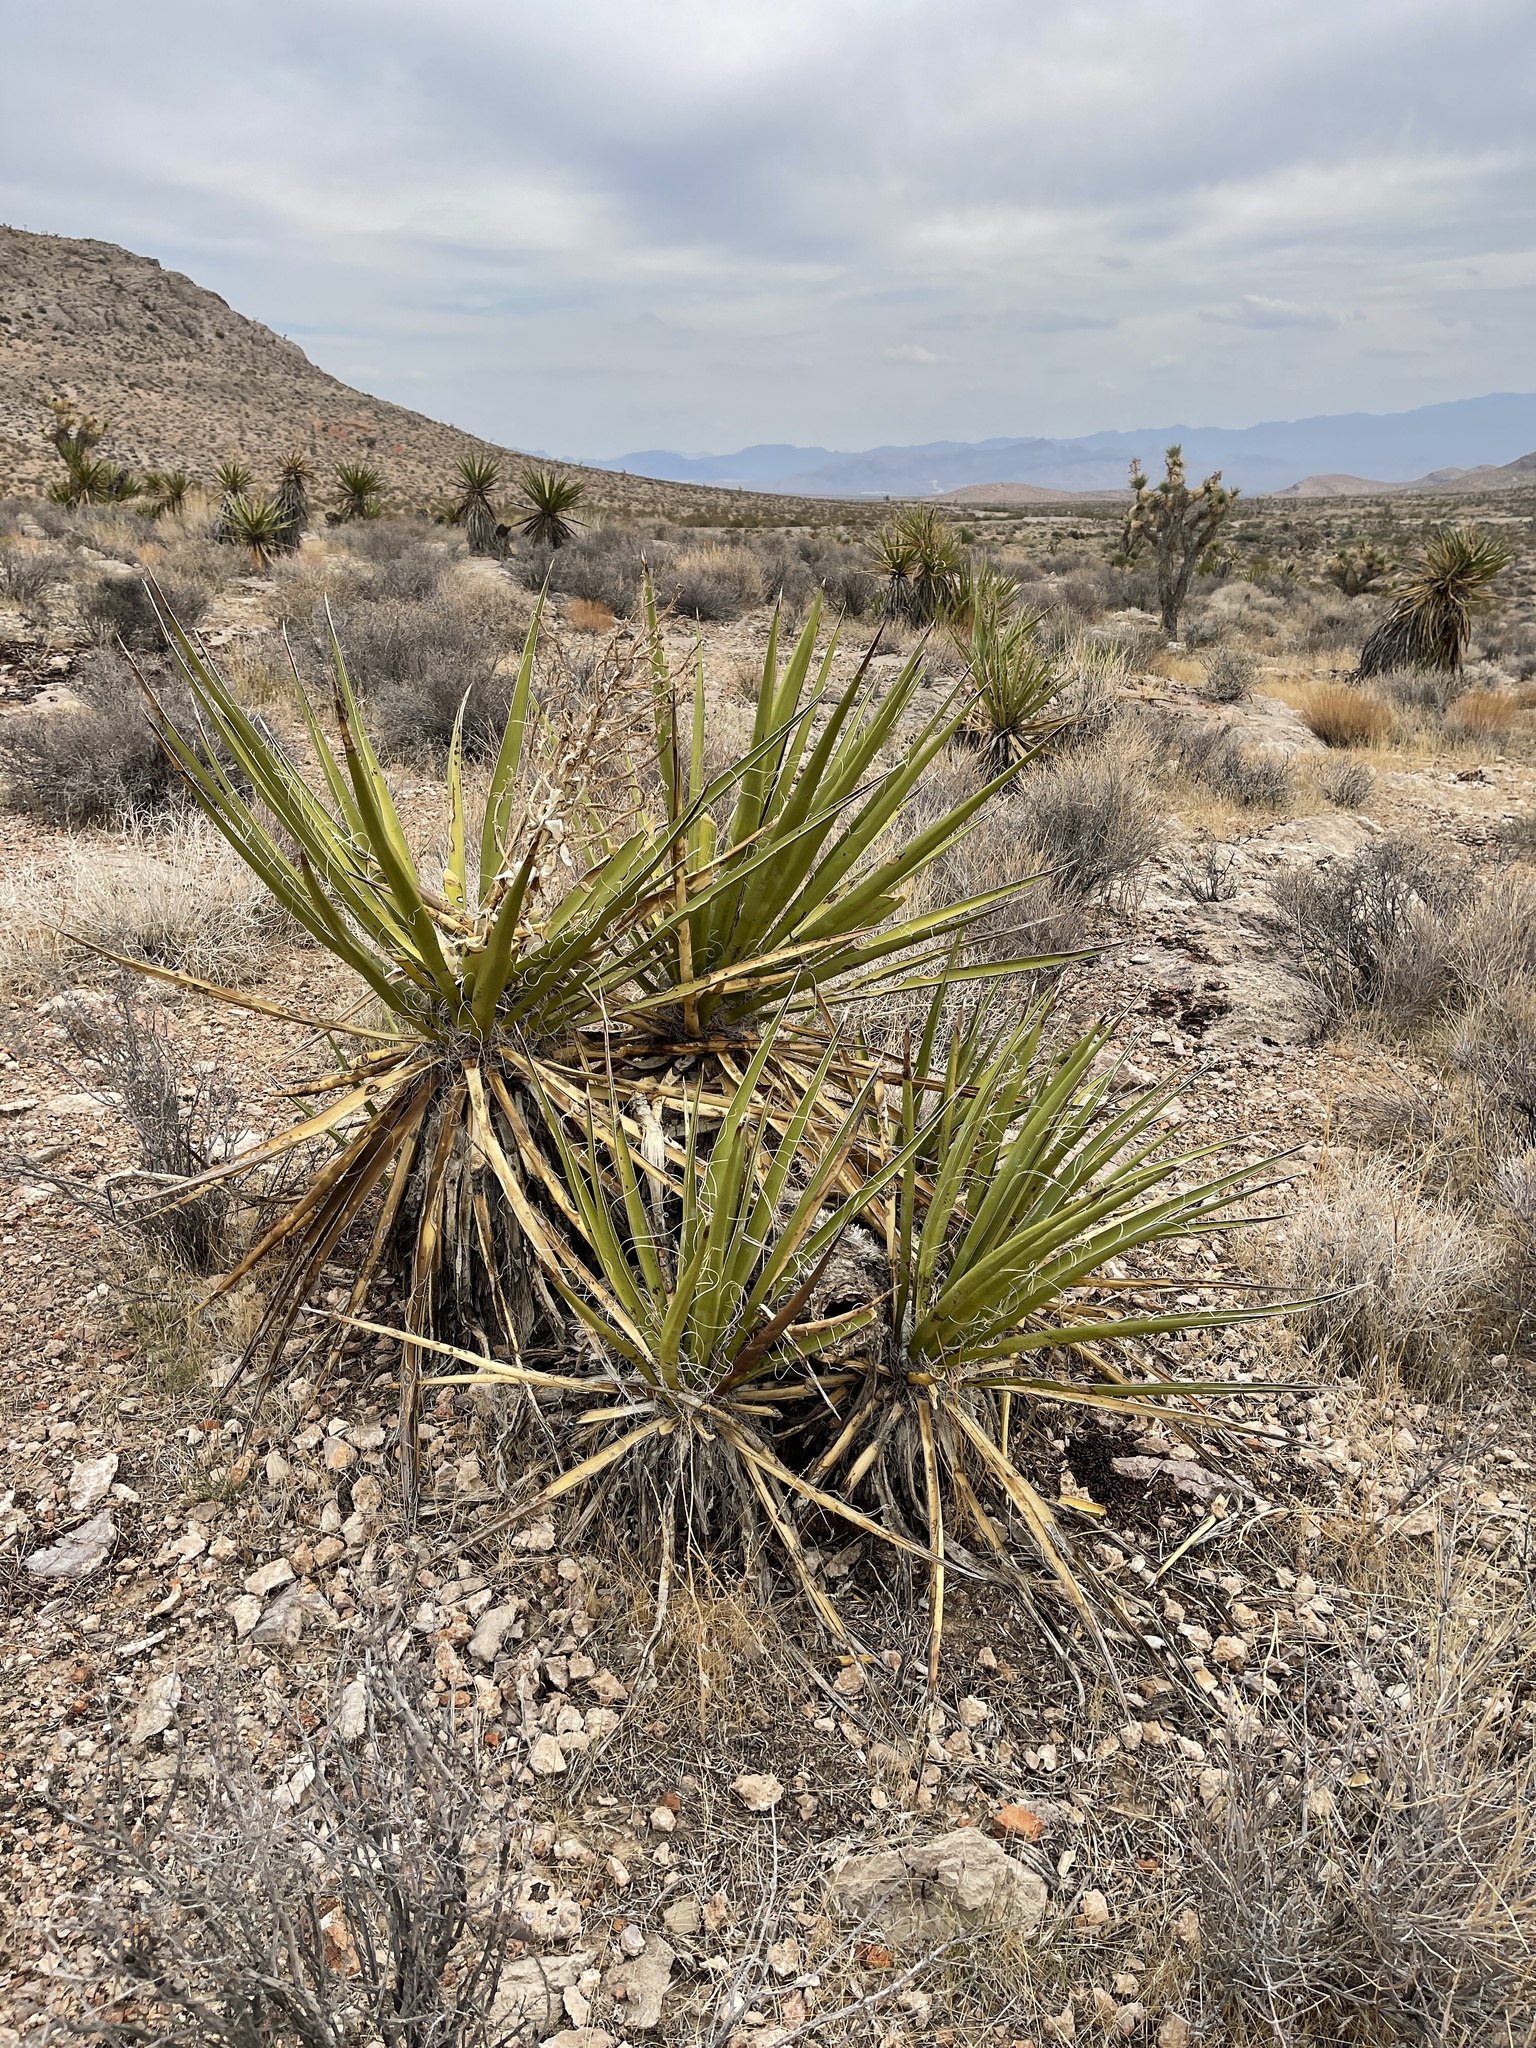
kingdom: Plantae
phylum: Tracheophyta
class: Liliopsida
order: Asparagales
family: Asparagaceae
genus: Yucca
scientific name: Yucca schidigera
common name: Mojave yucca
